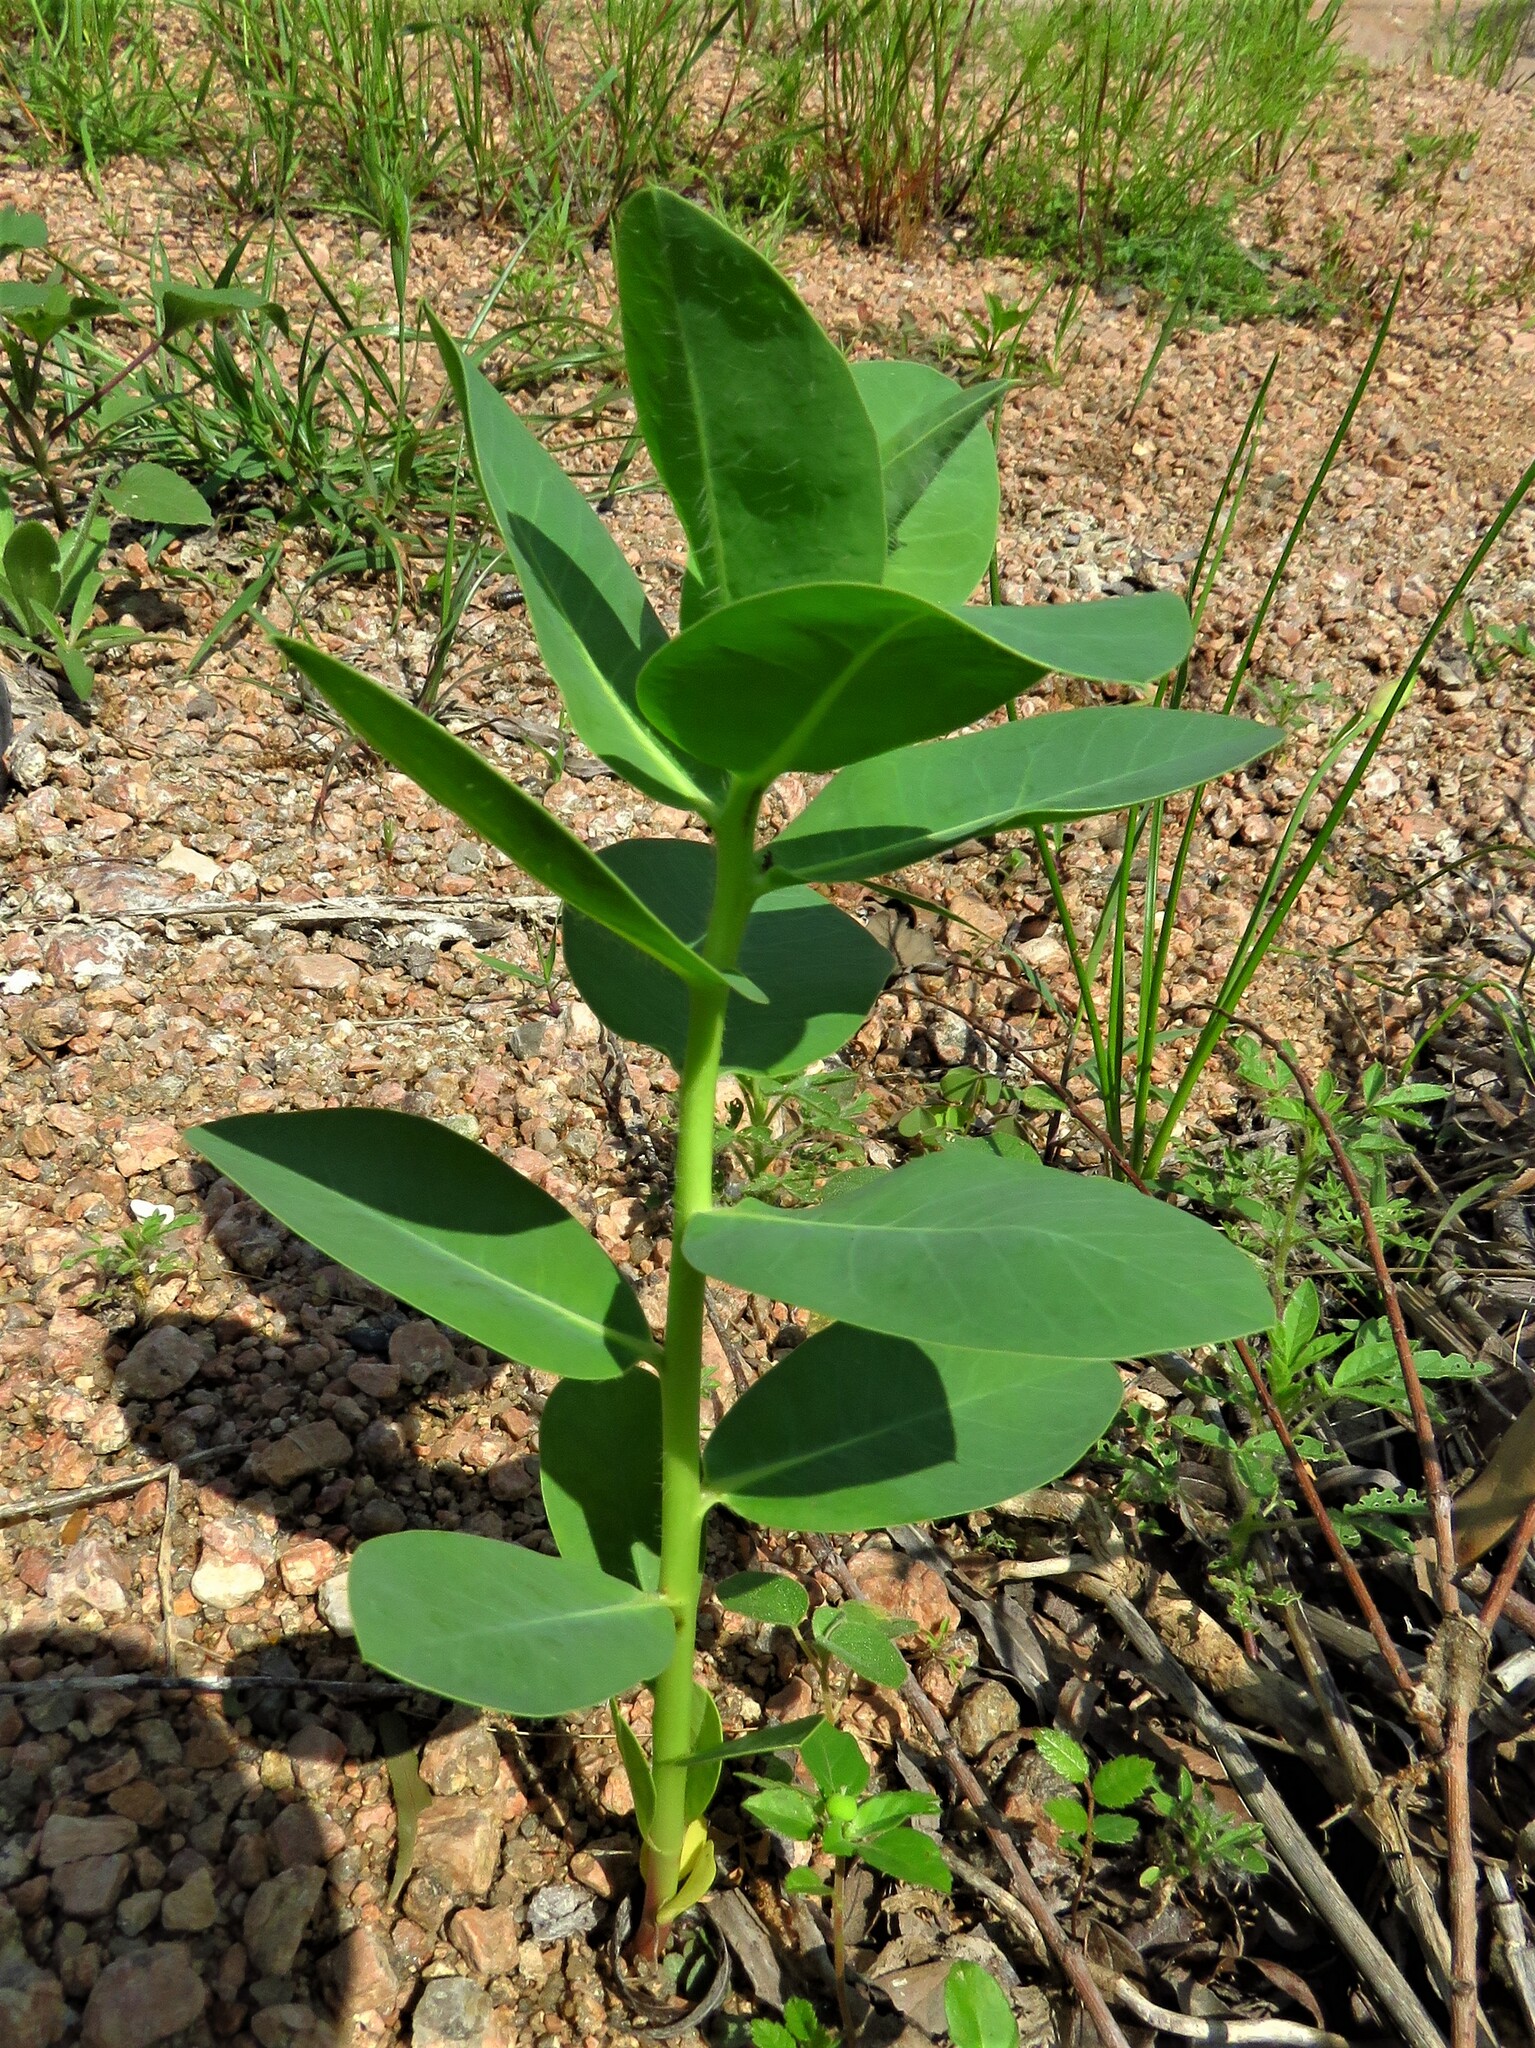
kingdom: Plantae
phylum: Tracheophyta
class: Magnoliopsida
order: Malpighiales
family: Euphorbiaceae
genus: Euphorbia
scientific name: Euphorbia marginata
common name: Ghostweed
